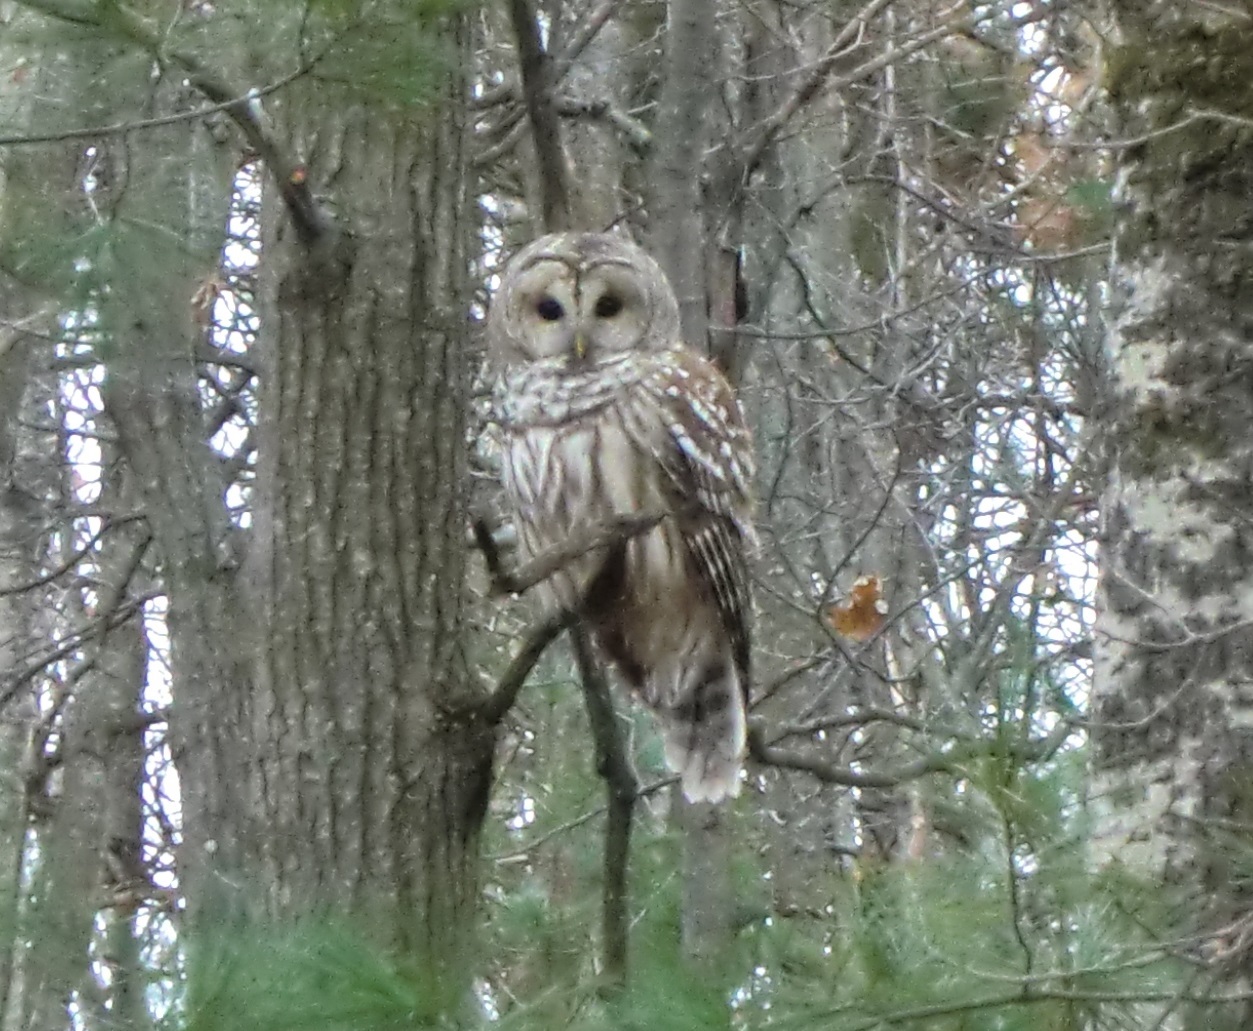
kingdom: Animalia
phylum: Chordata
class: Aves
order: Strigiformes
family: Strigidae
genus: Strix
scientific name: Strix varia
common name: Barred owl
